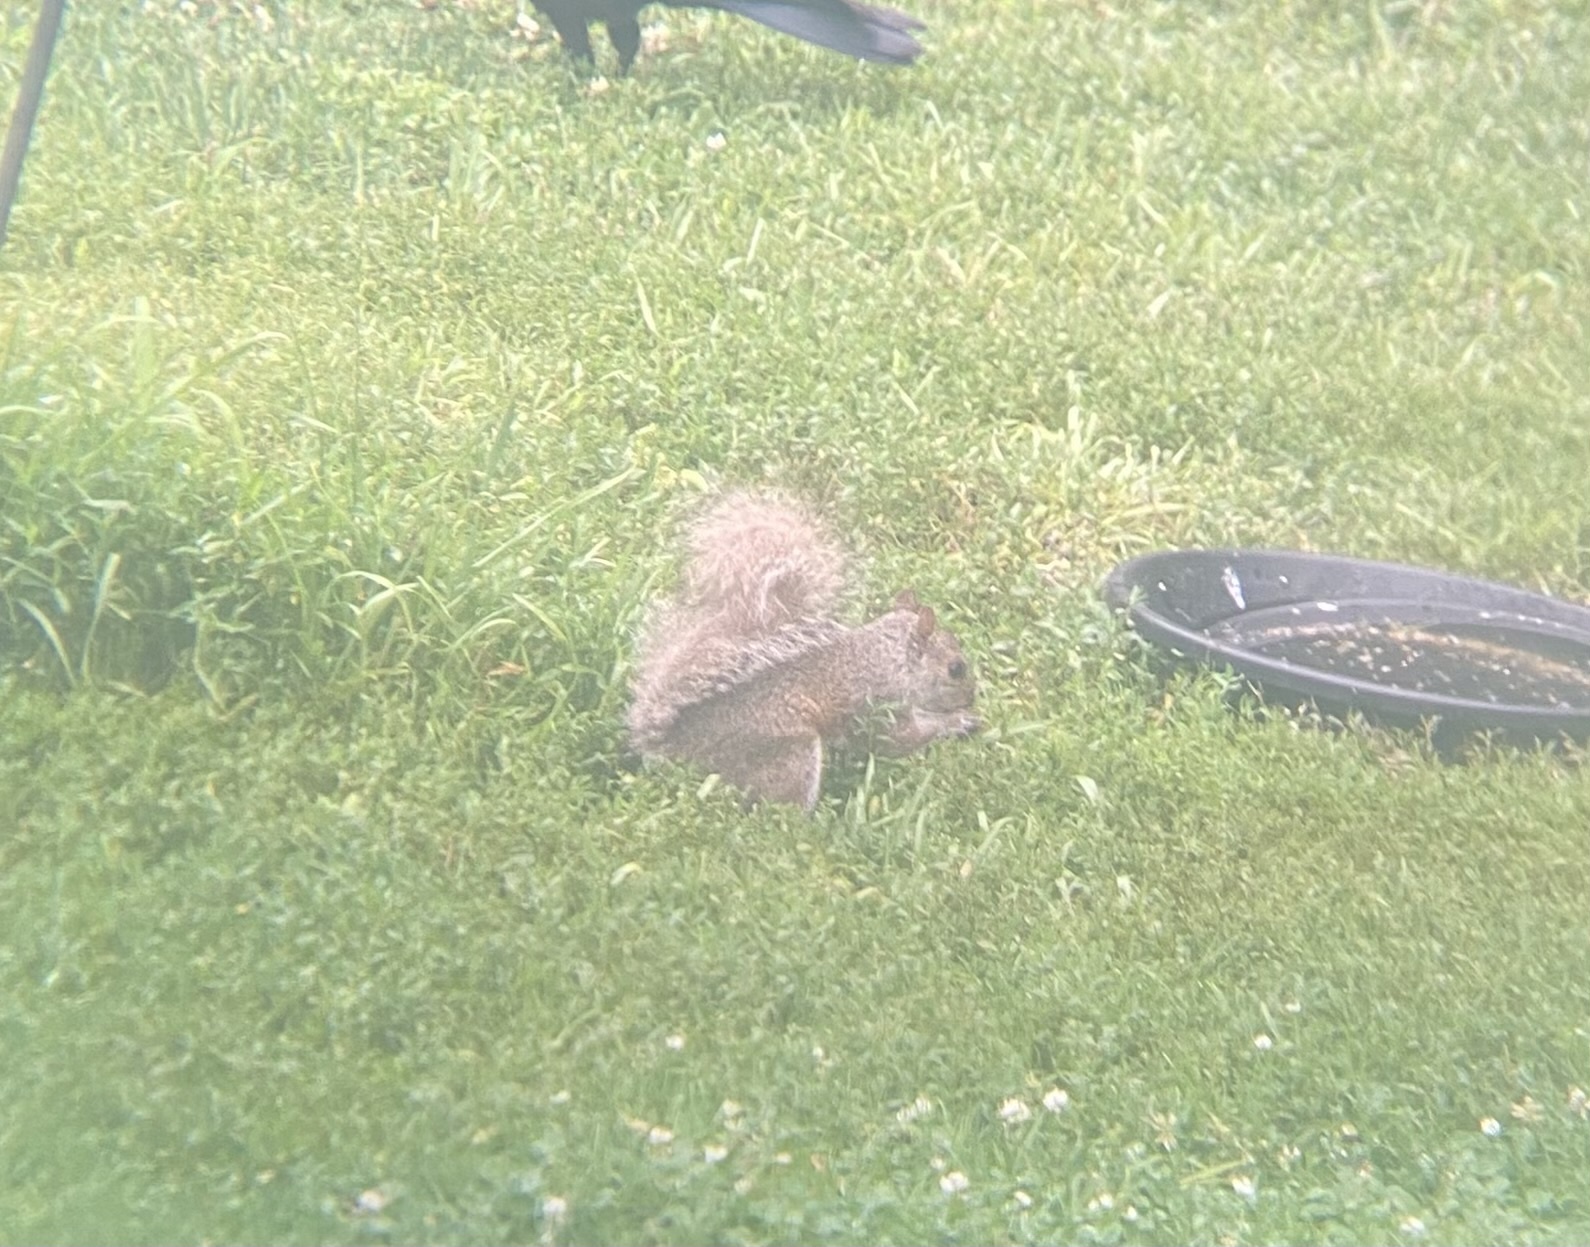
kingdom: Animalia
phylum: Chordata
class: Mammalia
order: Rodentia
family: Sciuridae
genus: Sciurus
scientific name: Sciurus carolinensis
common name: Eastern gray squirrel
